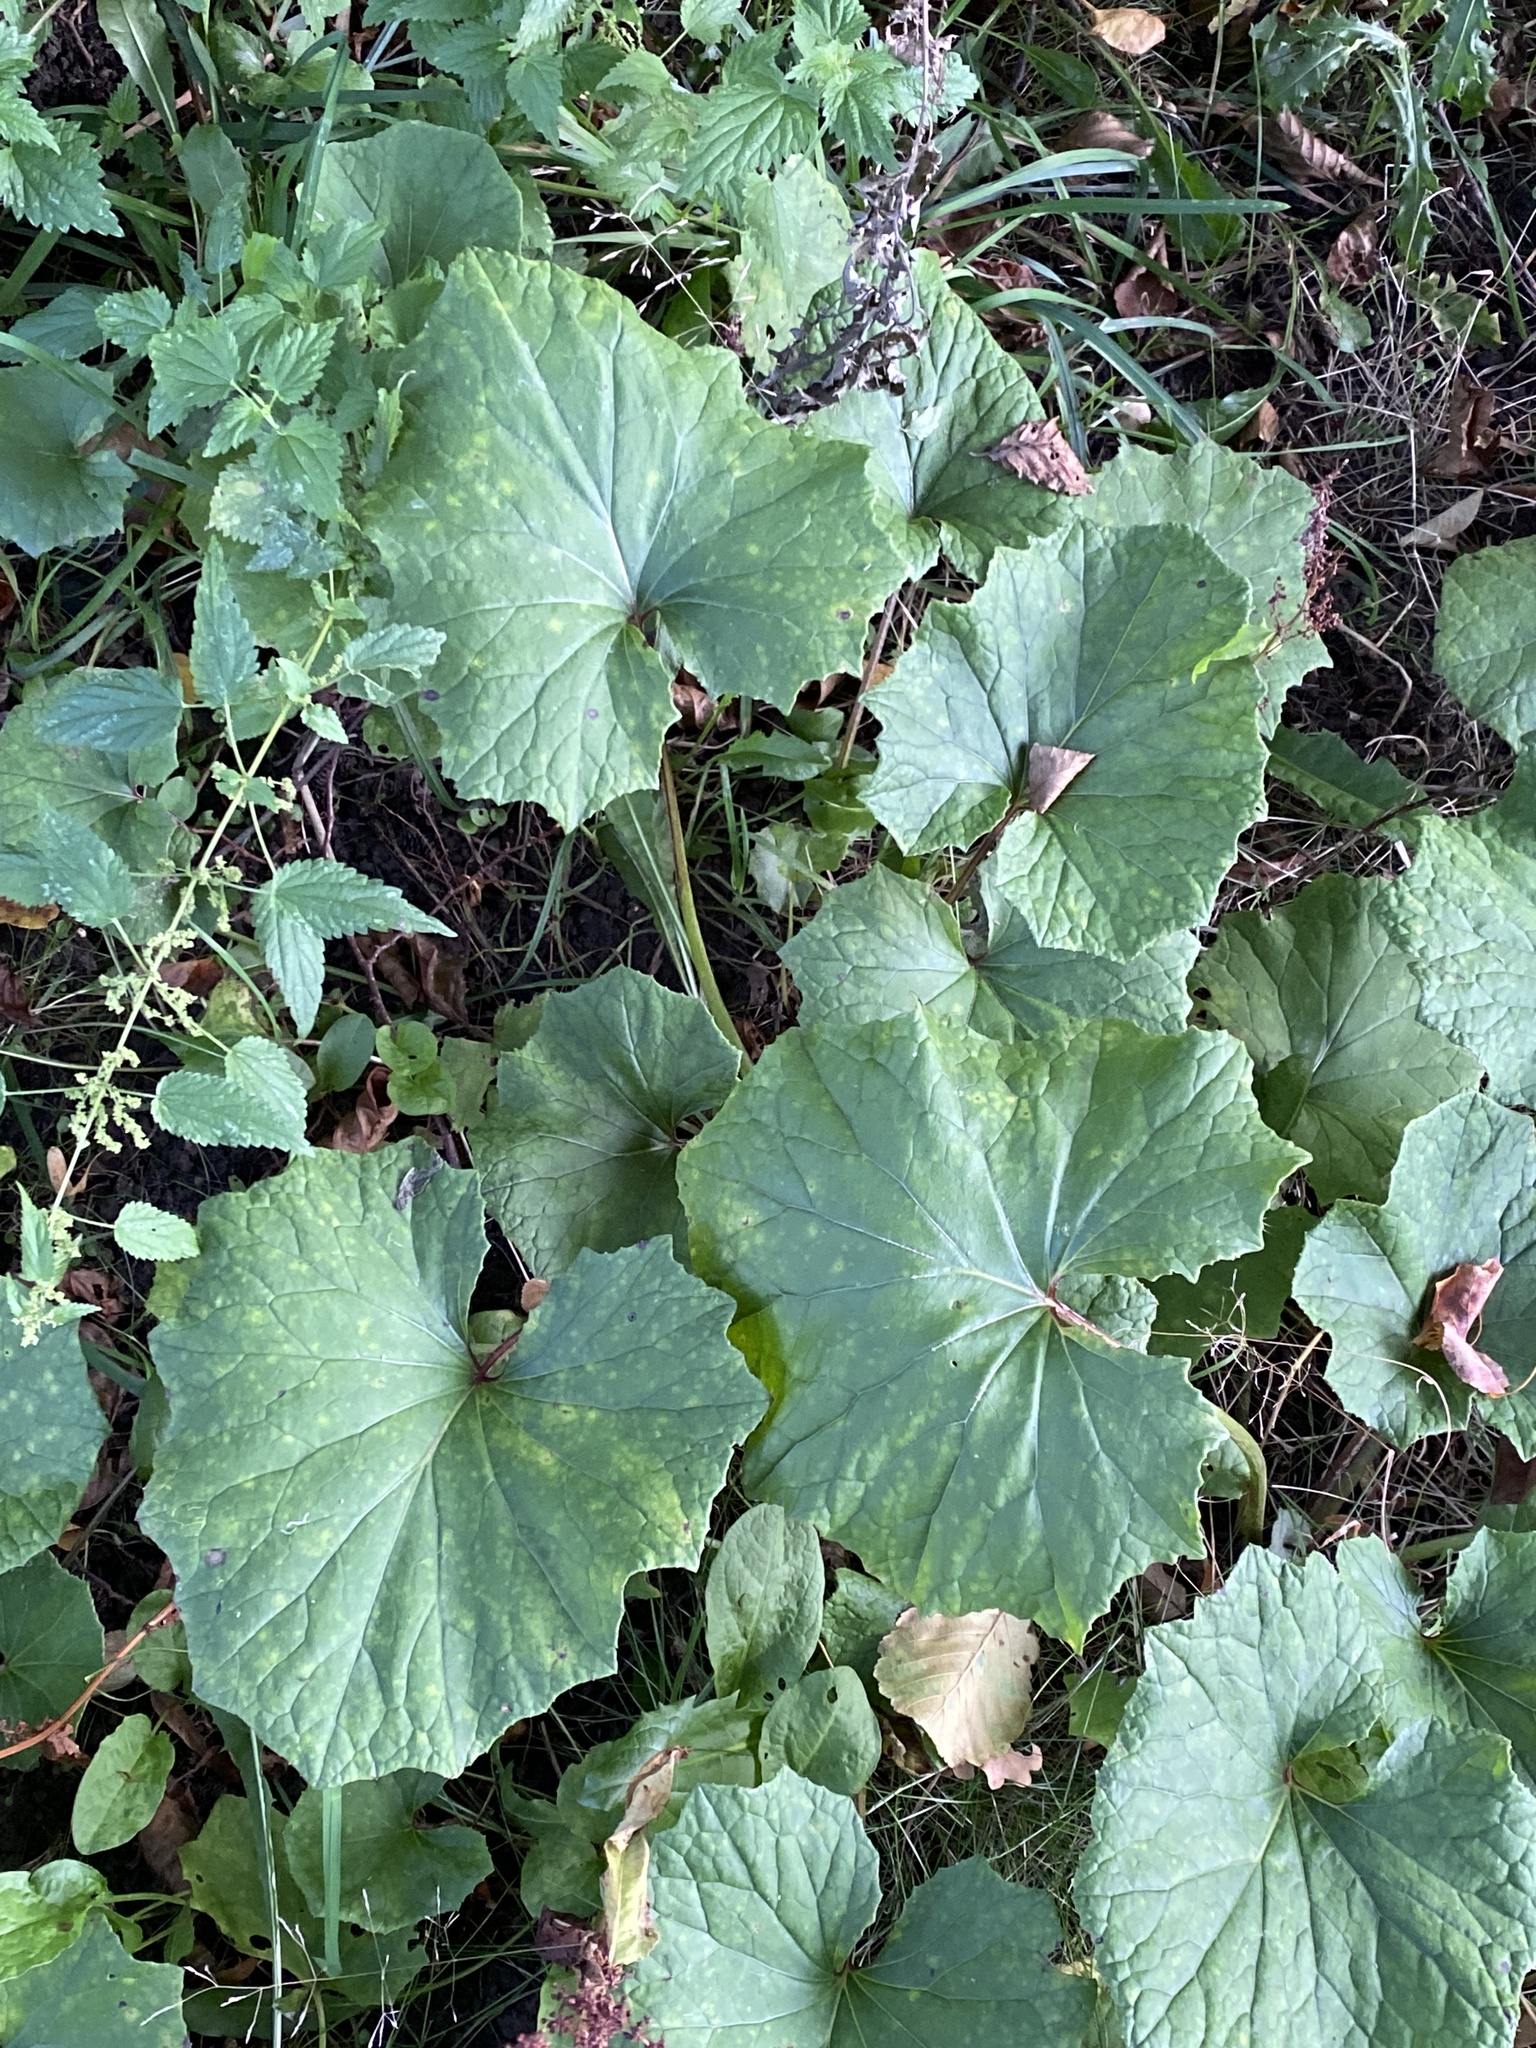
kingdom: Plantae
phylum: Tracheophyta
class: Magnoliopsida
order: Asterales
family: Asteraceae
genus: Tussilago
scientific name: Tussilago farfara
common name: Coltsfoot
